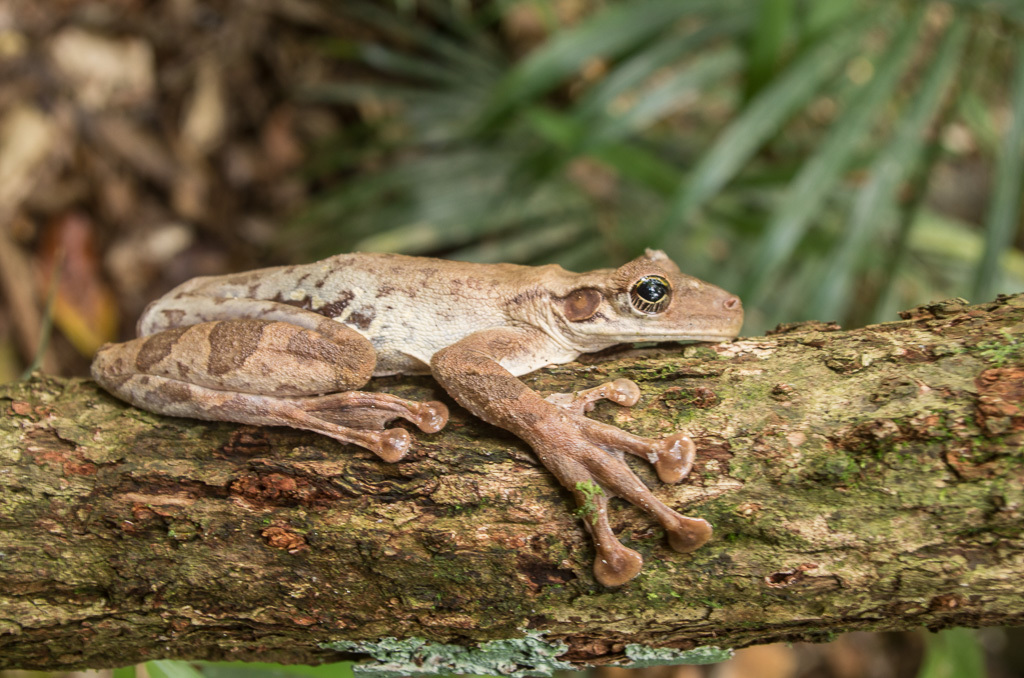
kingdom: Animalia
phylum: Chordata
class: Amphibia
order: Anura
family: Hylidae
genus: Osteocephalus
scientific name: Osteocephalus taurinus
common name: Manaus slender-legged treefrog
